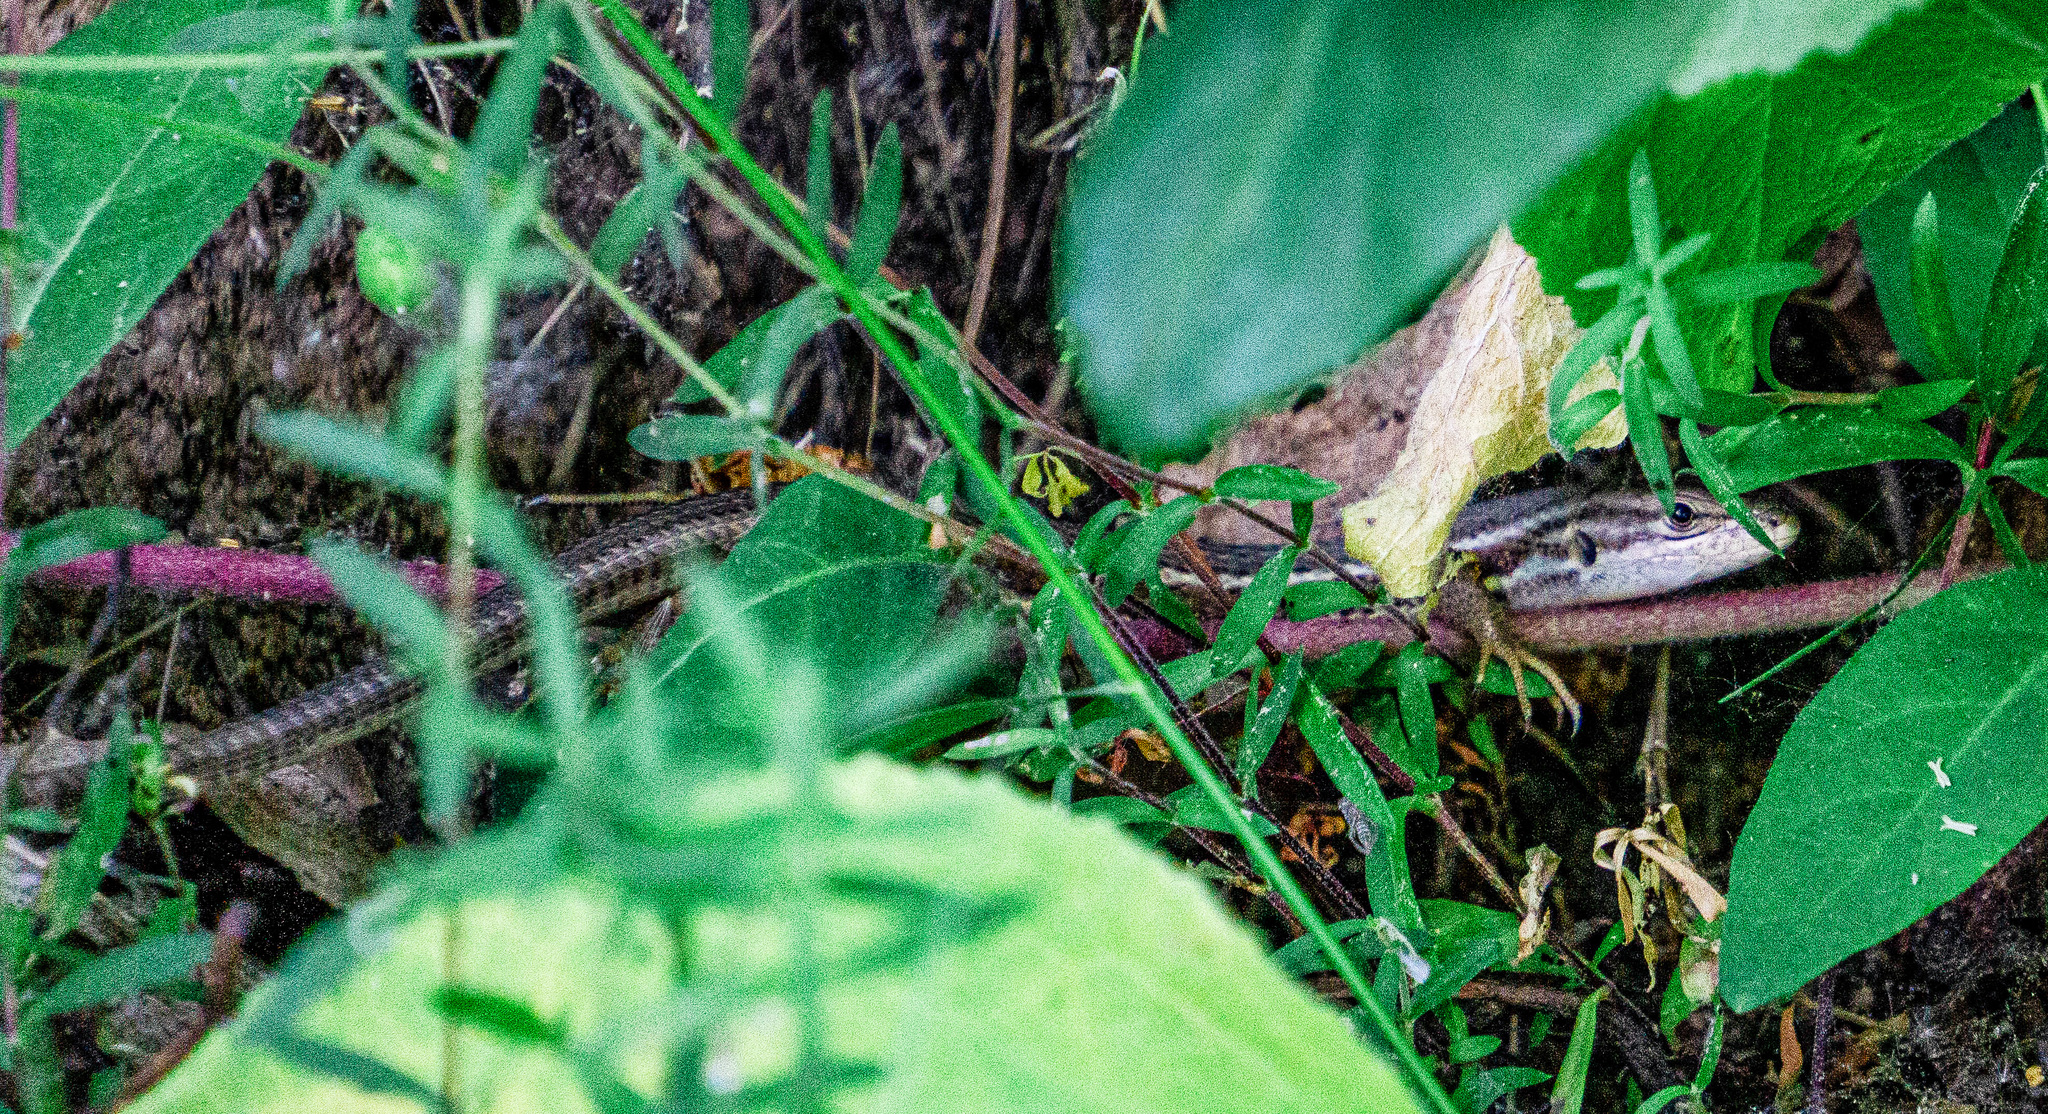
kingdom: Animalia
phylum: Chordata
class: Squamata
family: Lacertidae
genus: Psammodromus
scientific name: Psammodromus algirus
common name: Algerian psammodromus
